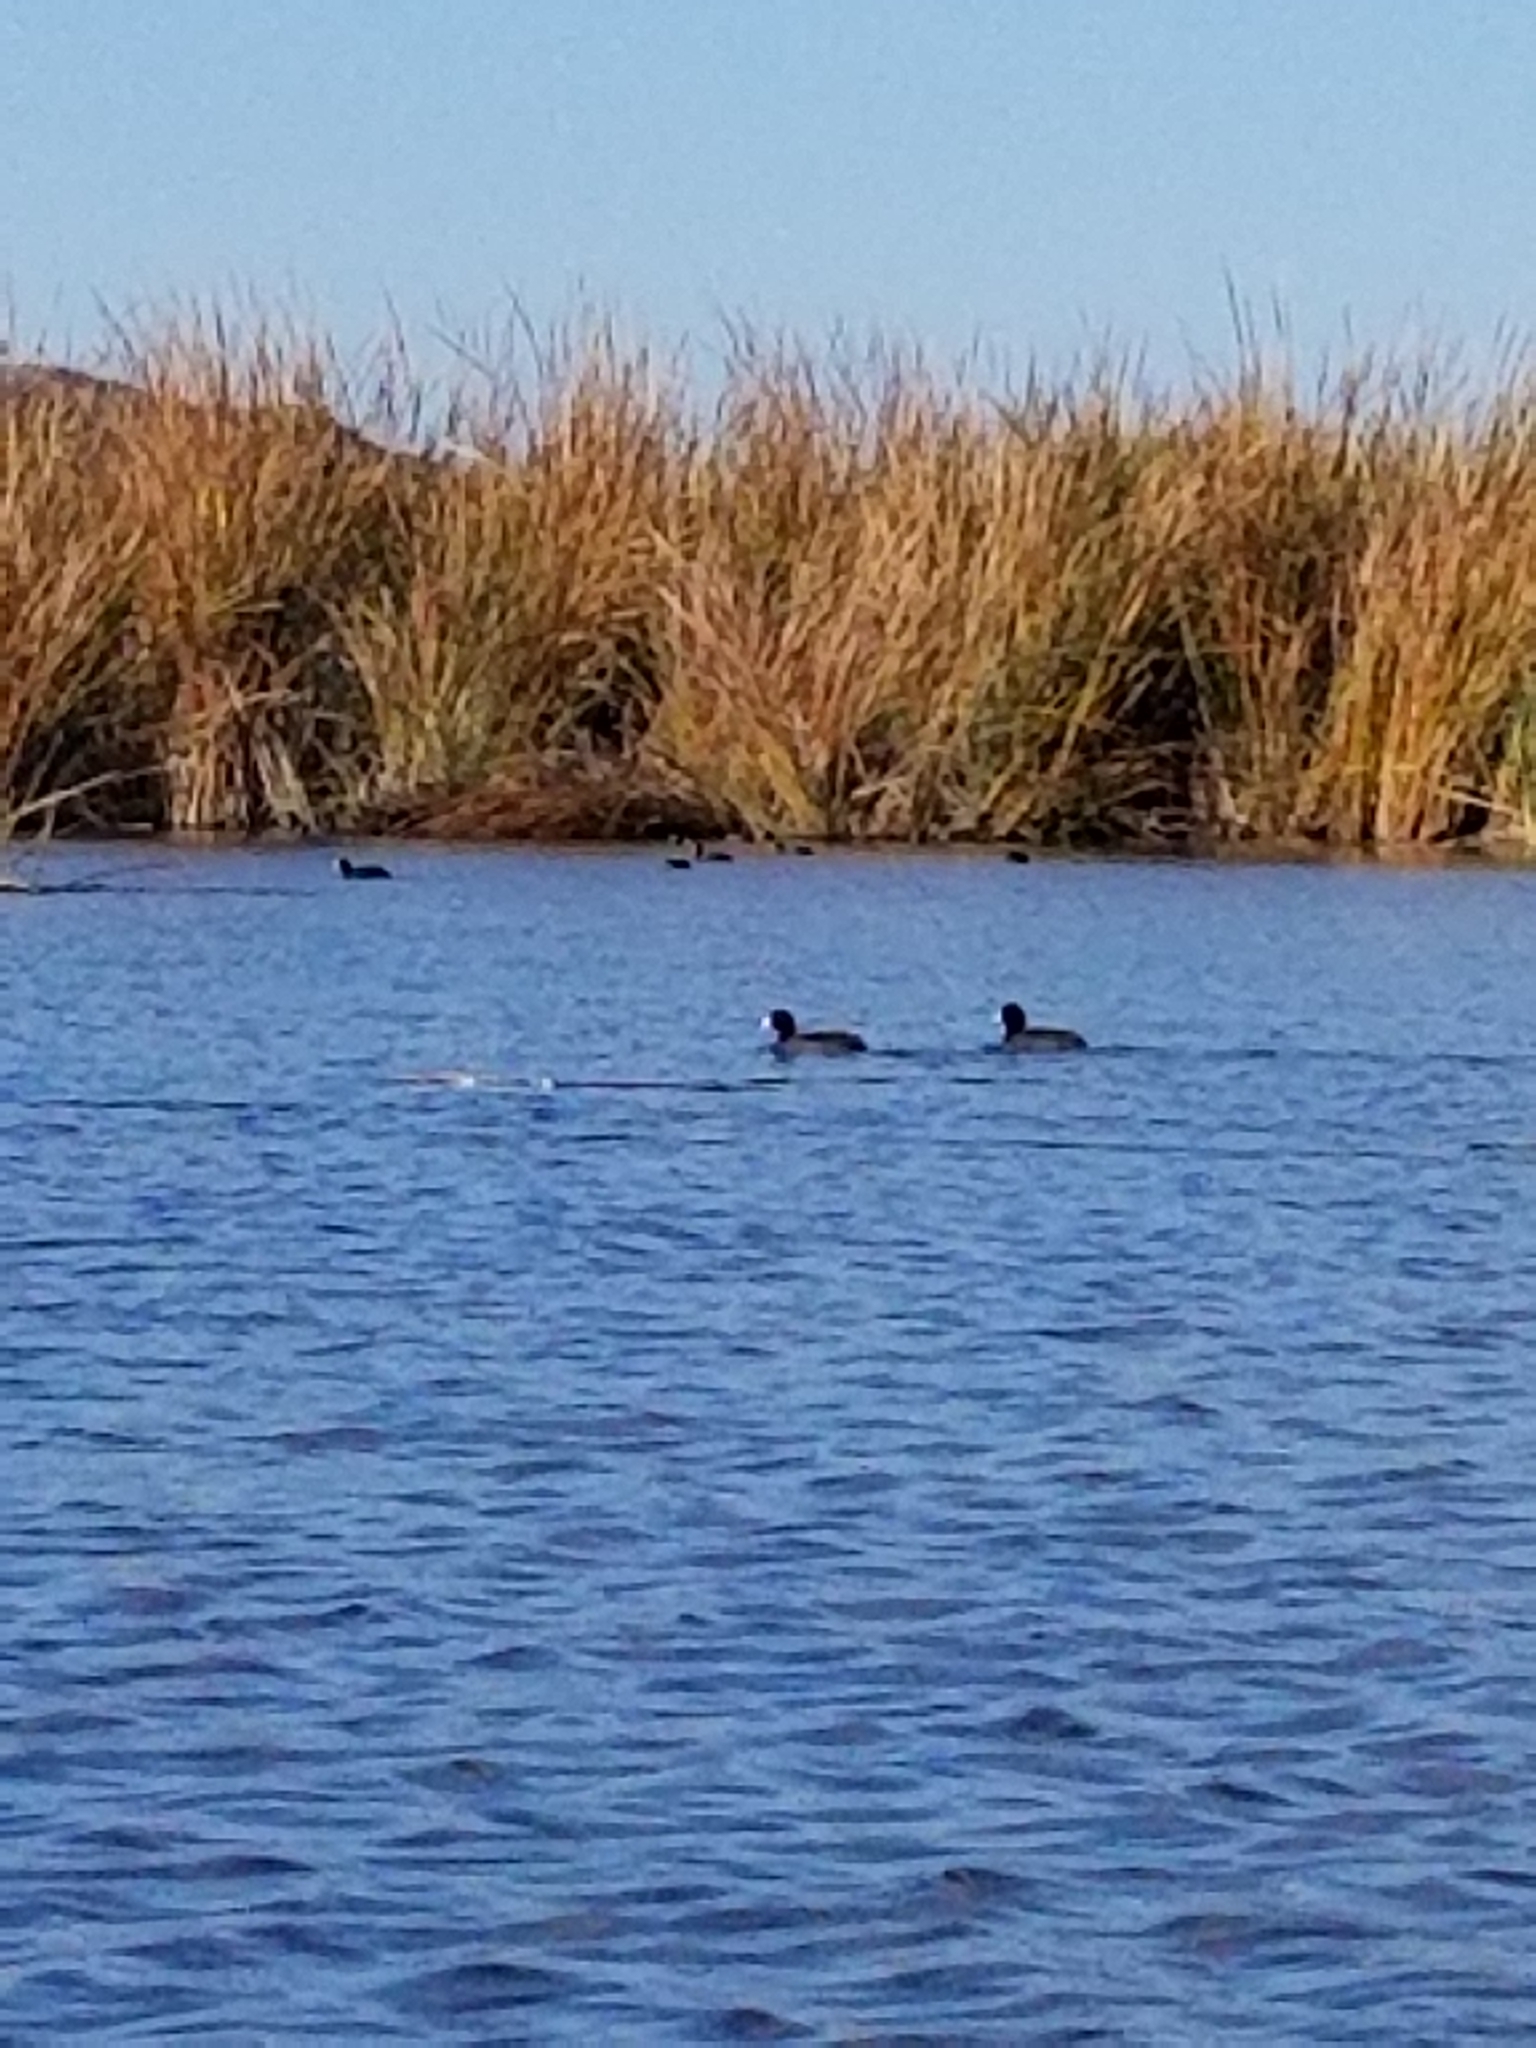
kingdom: Animalia
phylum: Chordata
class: Aves
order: Gruiformes
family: Rallidae
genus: Fulica
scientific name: Fulica americana
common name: American coot
